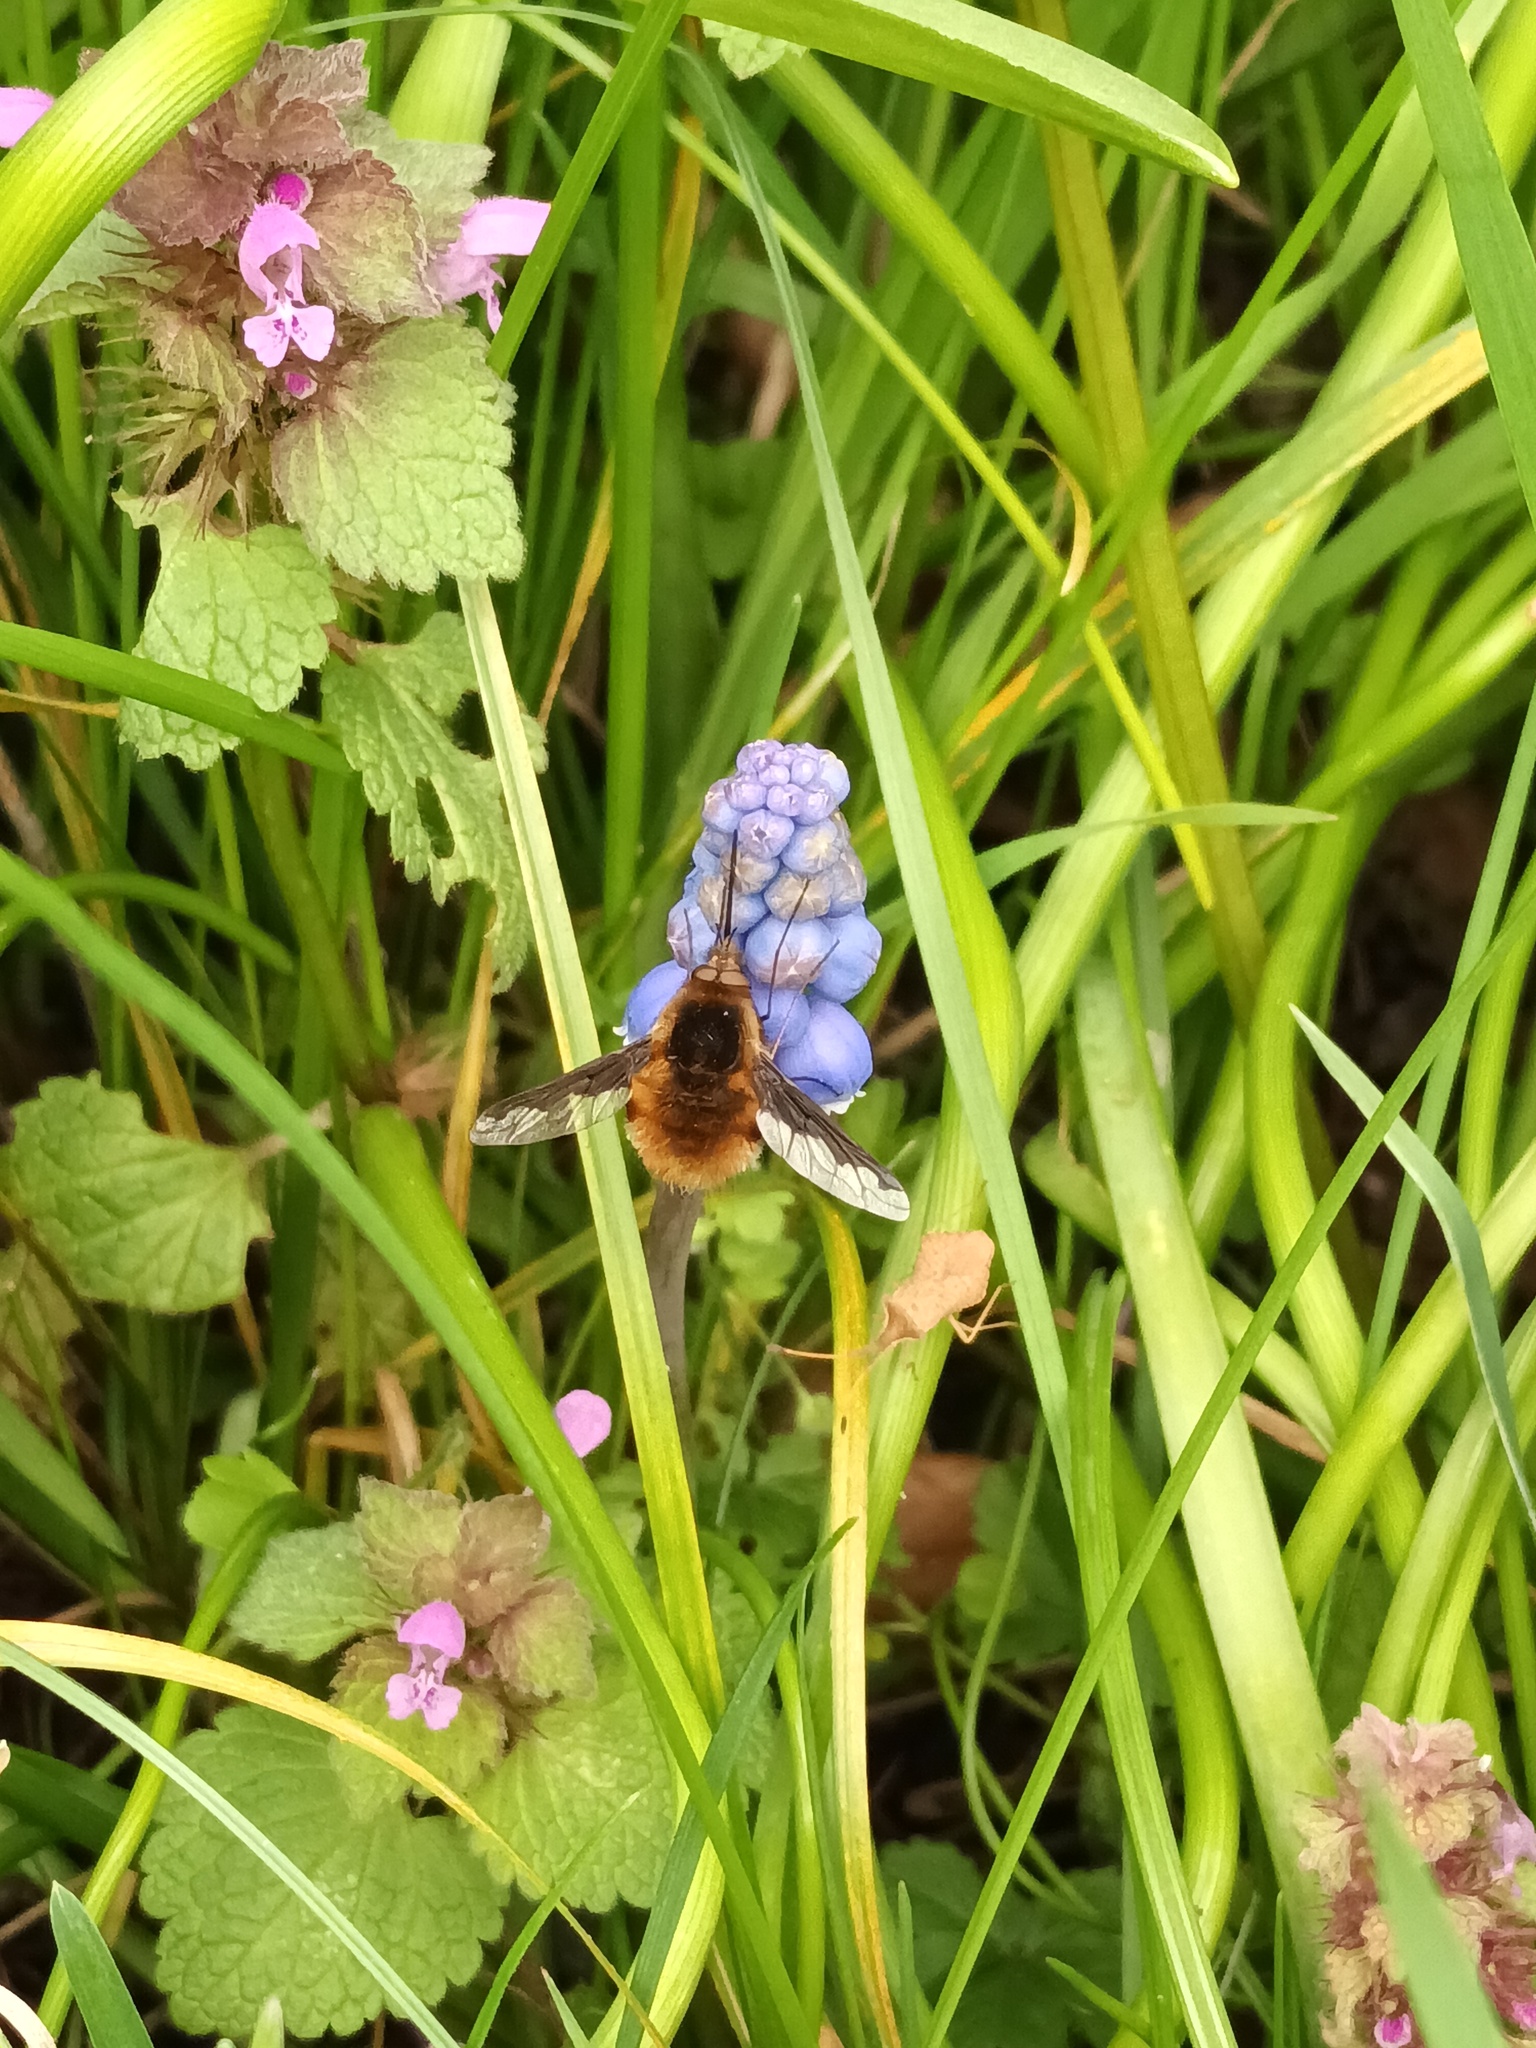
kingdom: Animalia
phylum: Arthropoda
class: Insecta
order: Diptera
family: Bombyliidae
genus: Bombylius
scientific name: Bombylius major
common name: Bee fly
